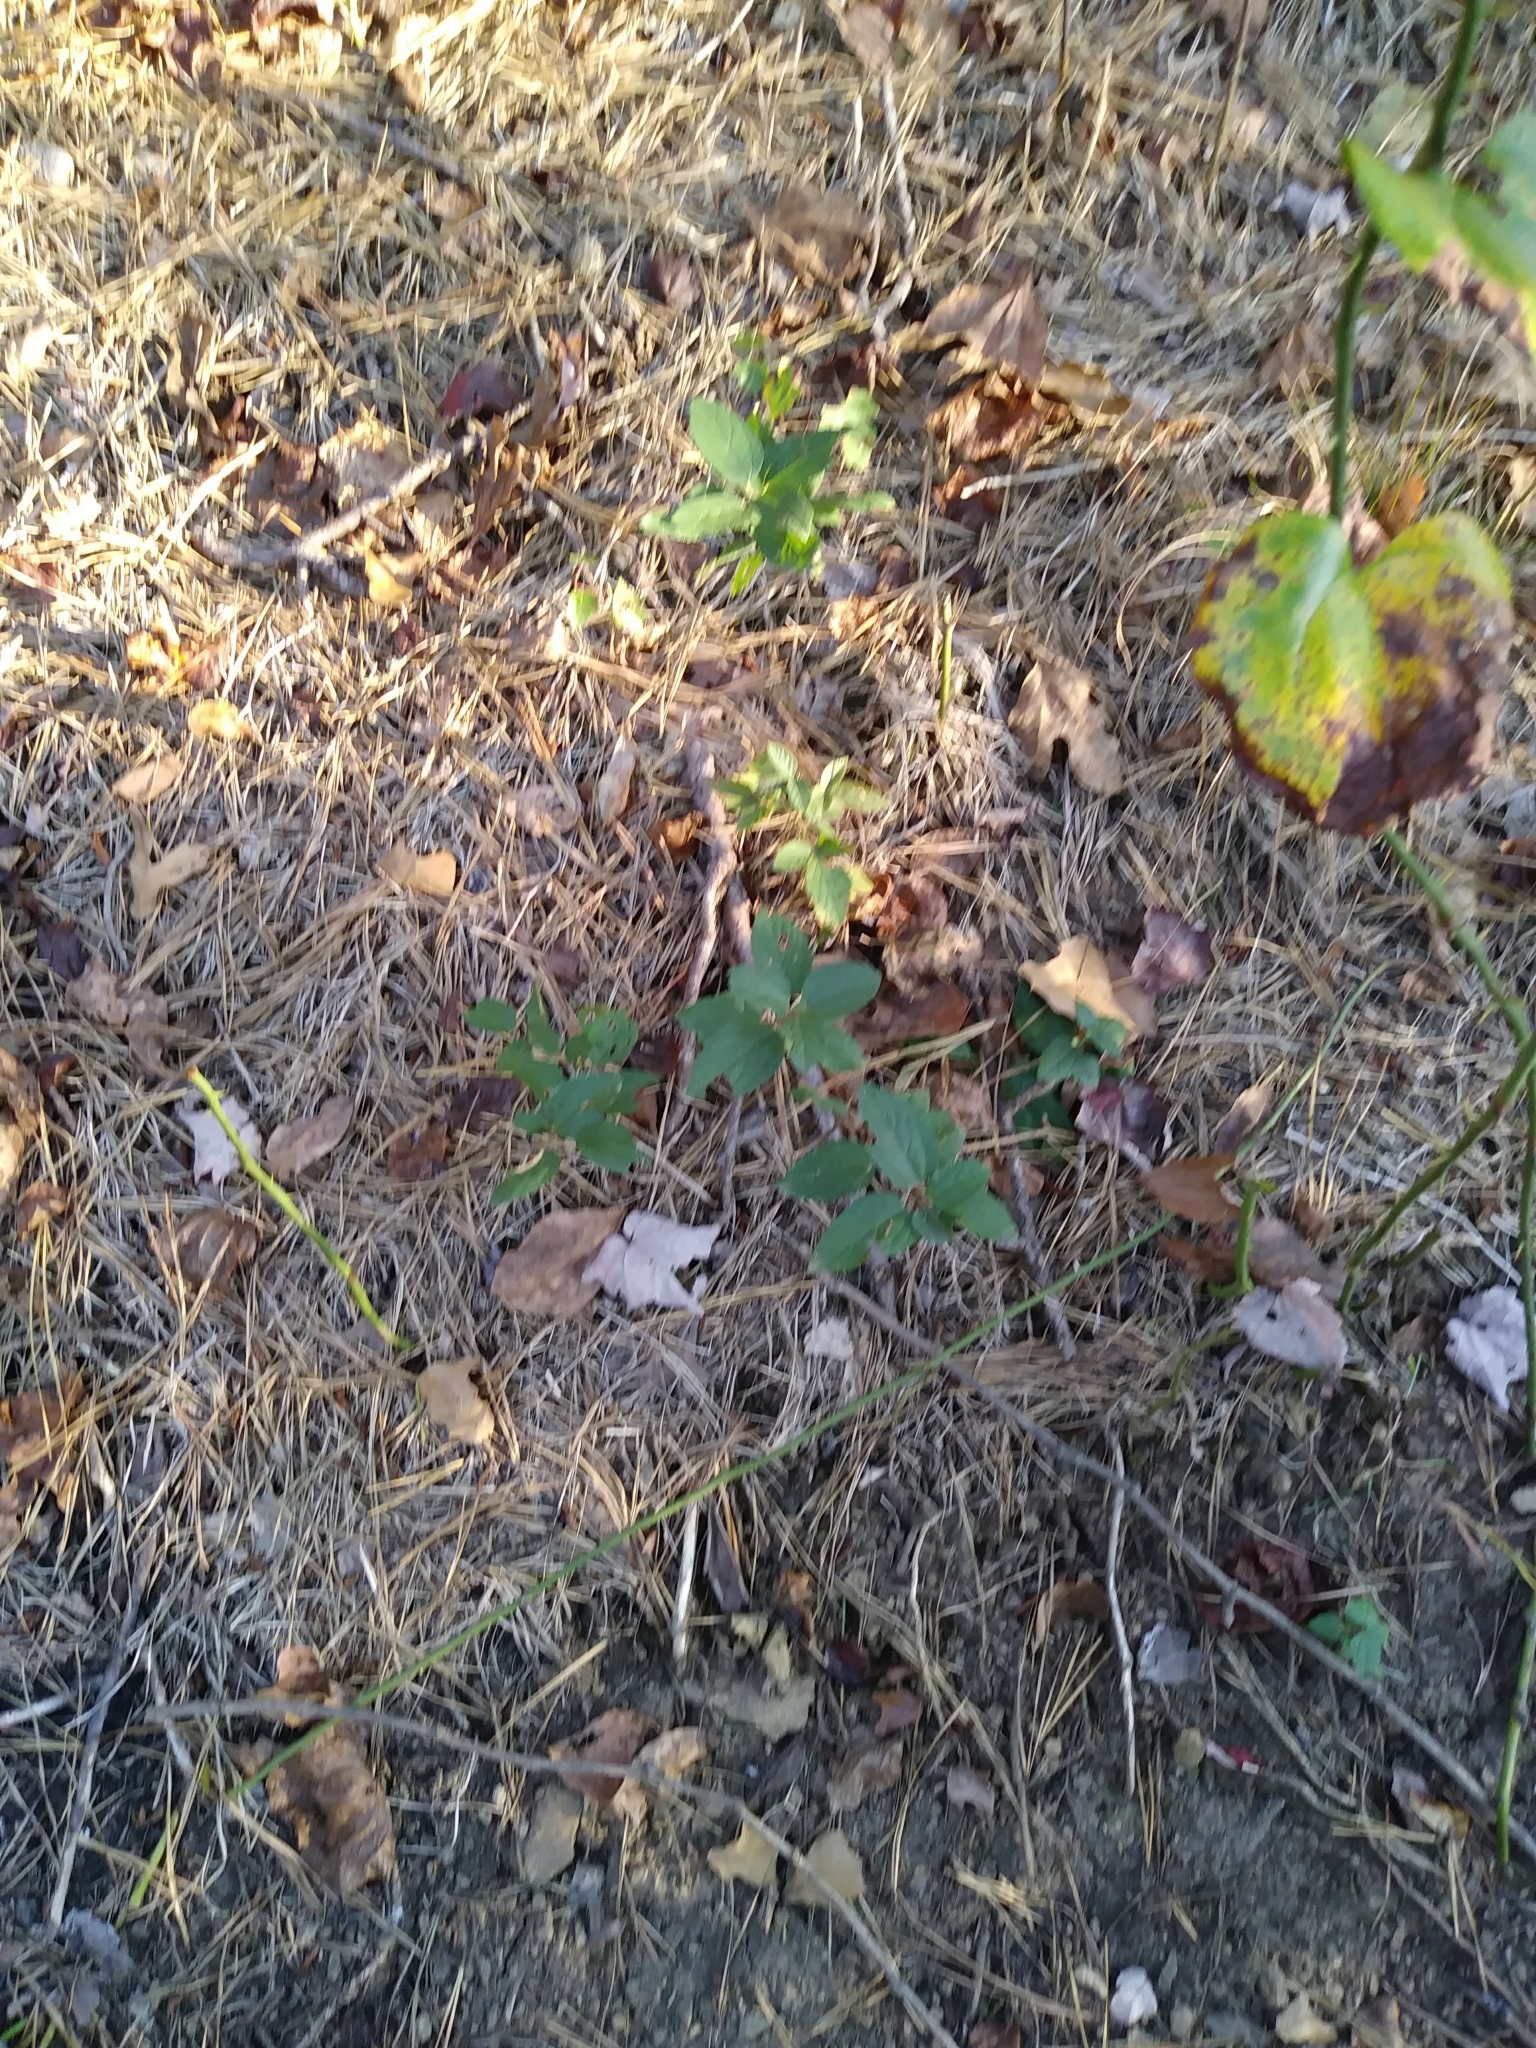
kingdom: Plantae
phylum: Tracheophyta
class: Magnoliopsida
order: Rosales
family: Rhamnaceae
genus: Ceanothus
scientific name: Ceanothus americanus
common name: Redroot
